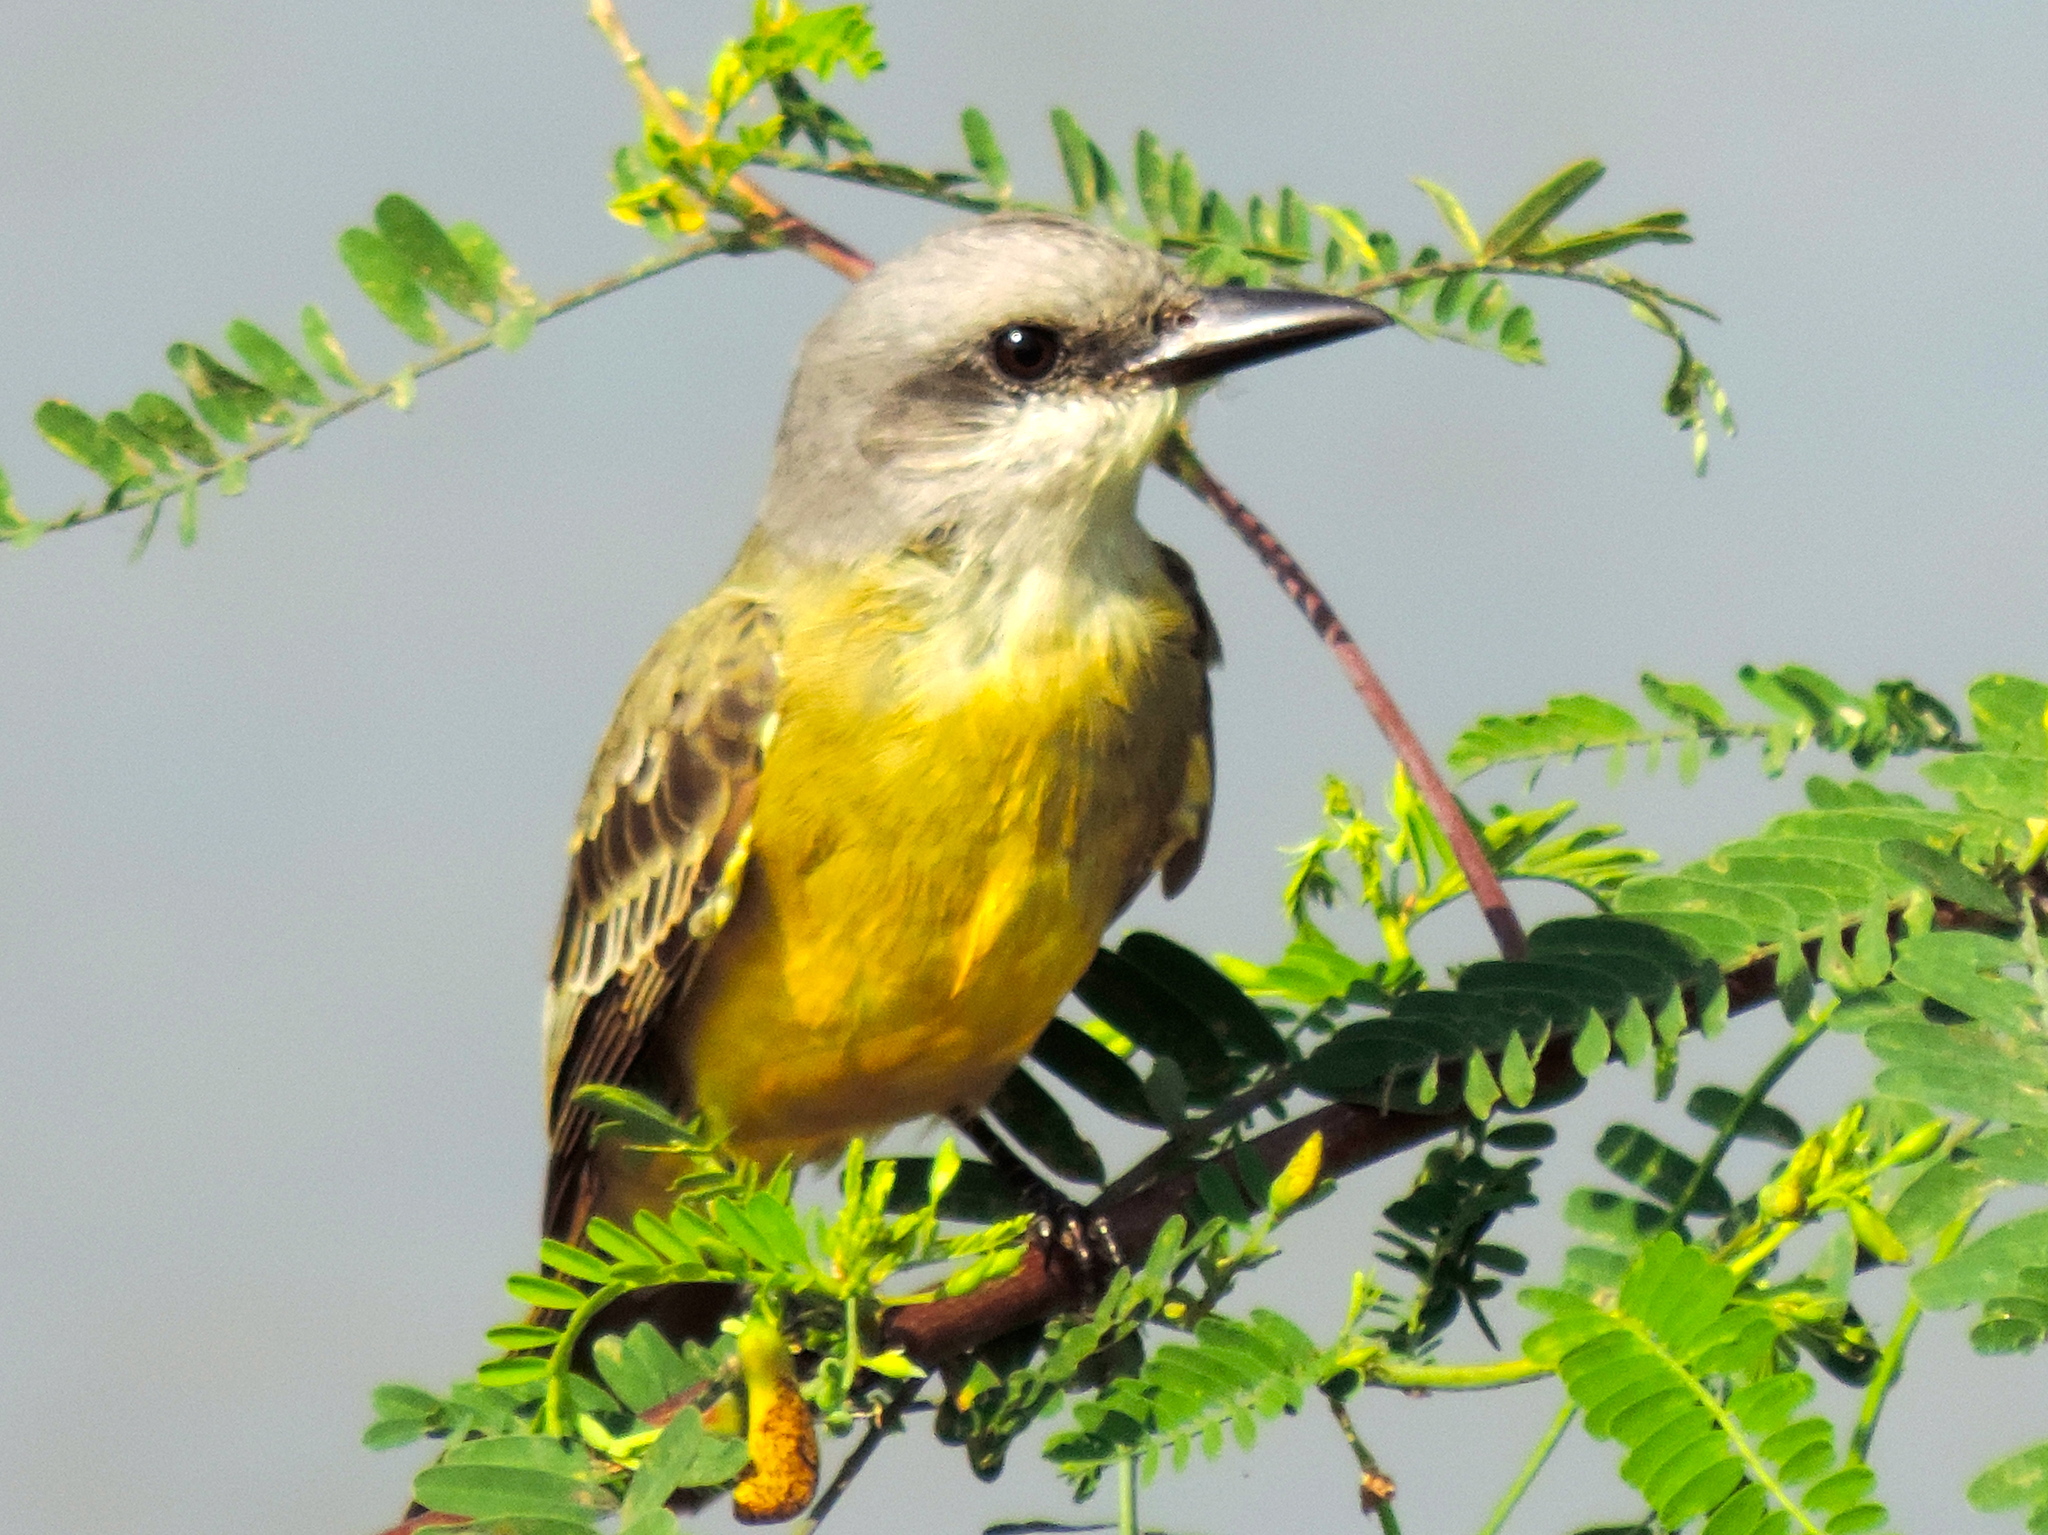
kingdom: Animalia
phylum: Chordata
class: Aves
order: Passeriformes
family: Tyrannidae
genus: Tyrannus
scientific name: Tyrannus melancholicus
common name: Tropical kingbird
